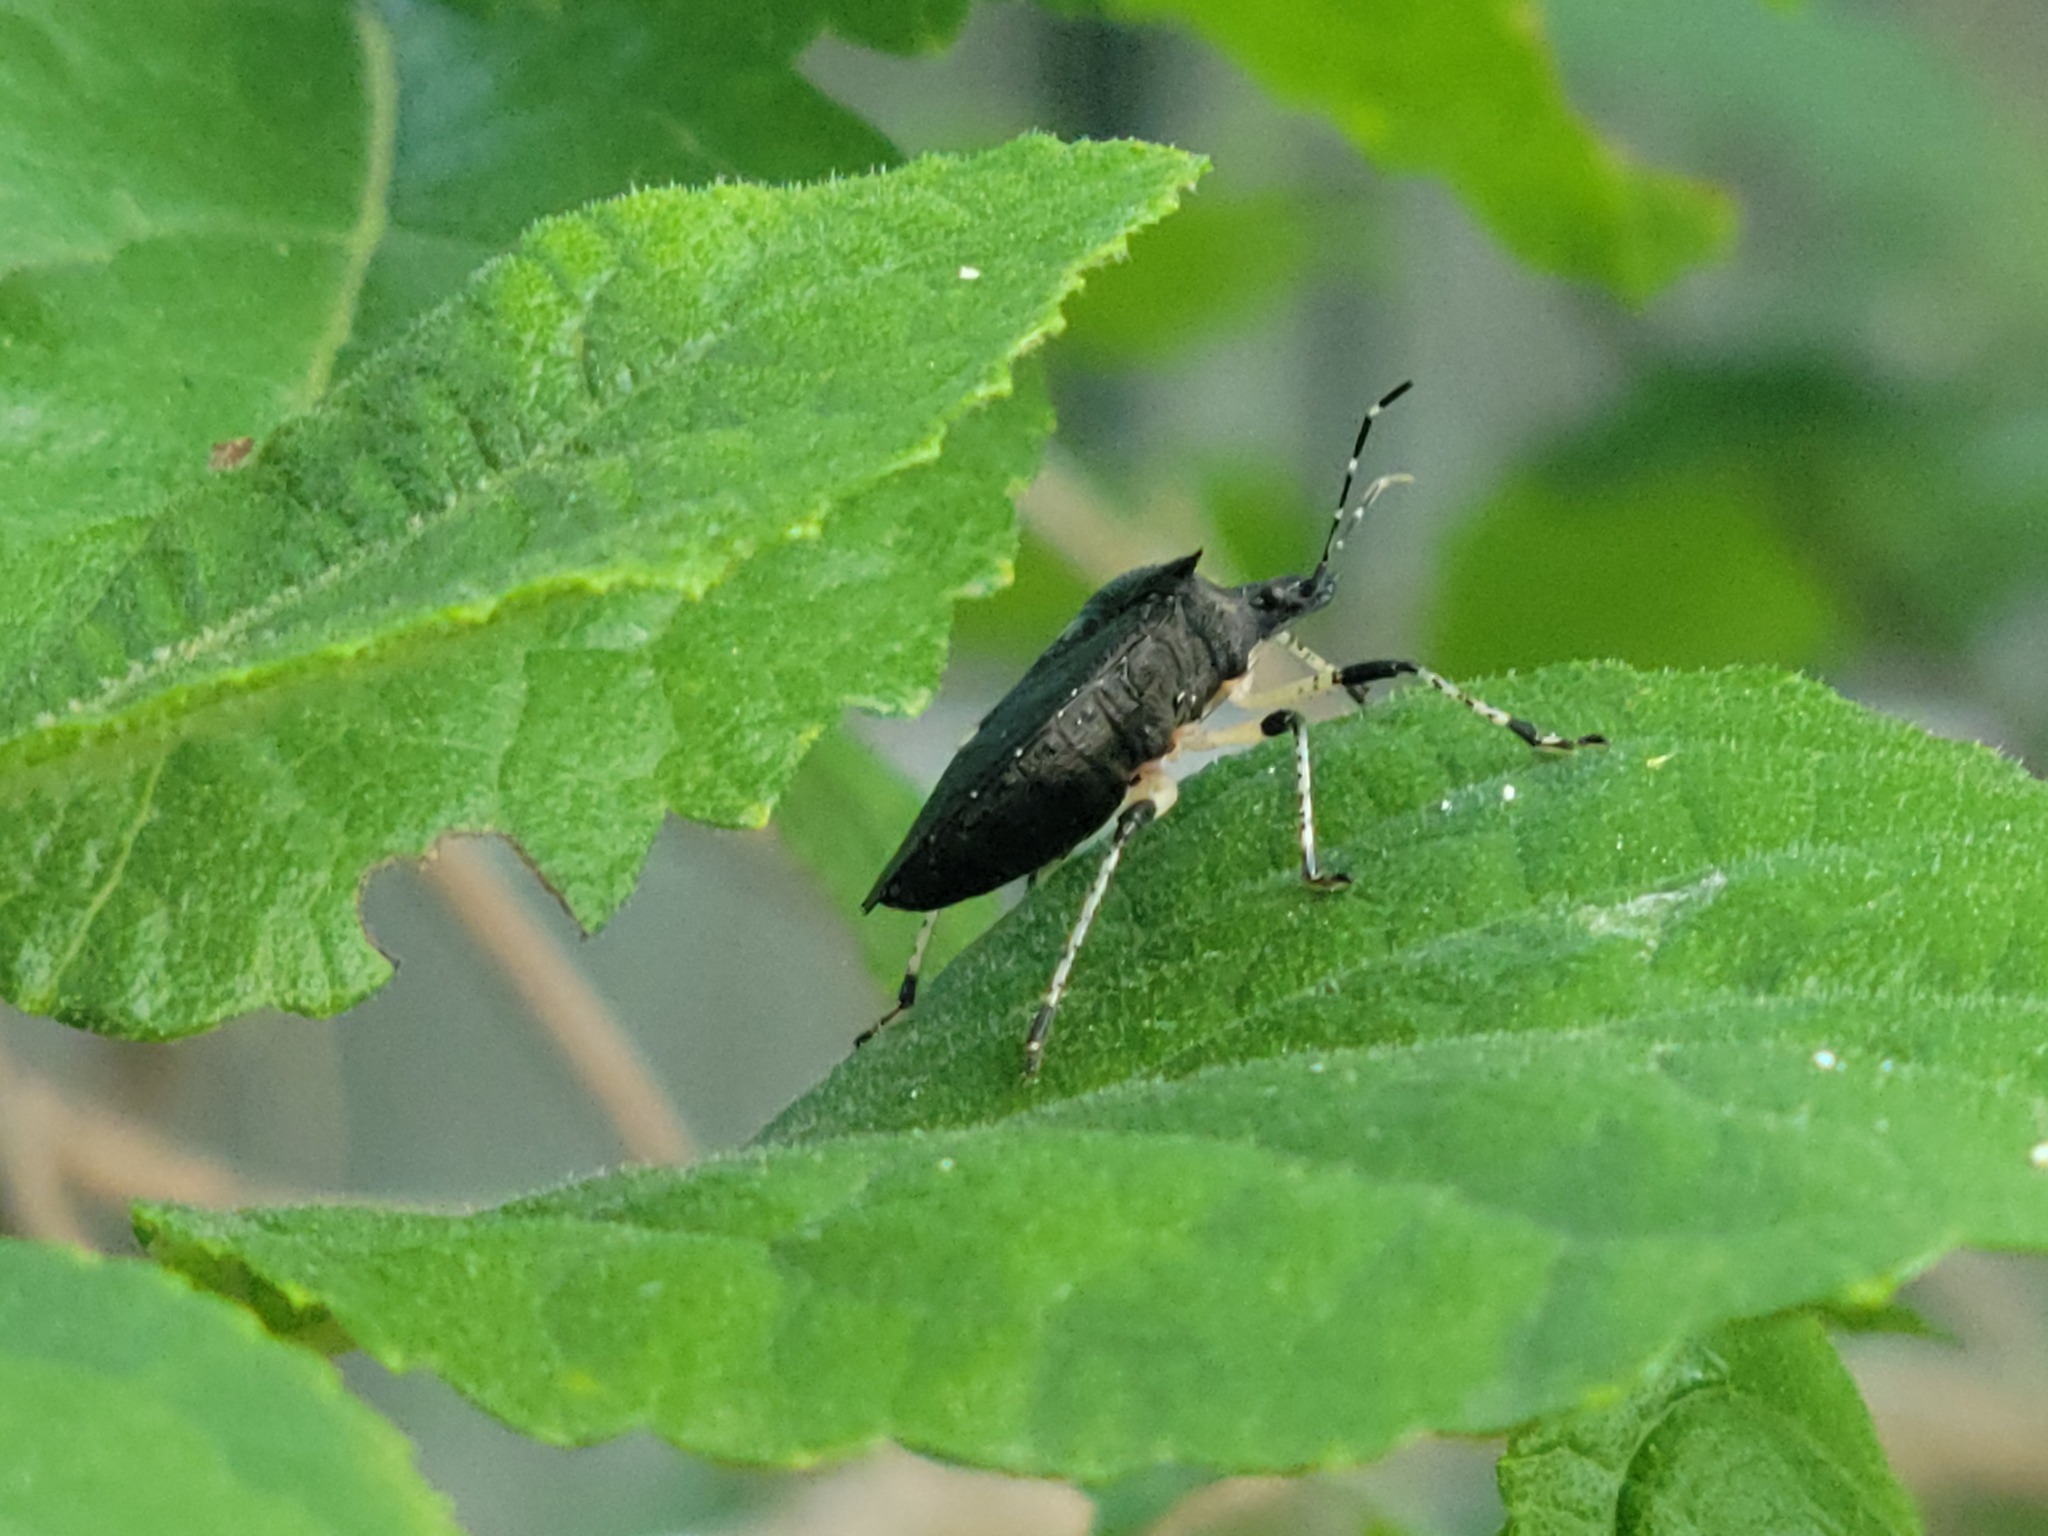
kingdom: Animalia
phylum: Arthropoda
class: Insecta
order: Hemiptera
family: Pentatomidae
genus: Proxys
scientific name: Proxys punctulatus
